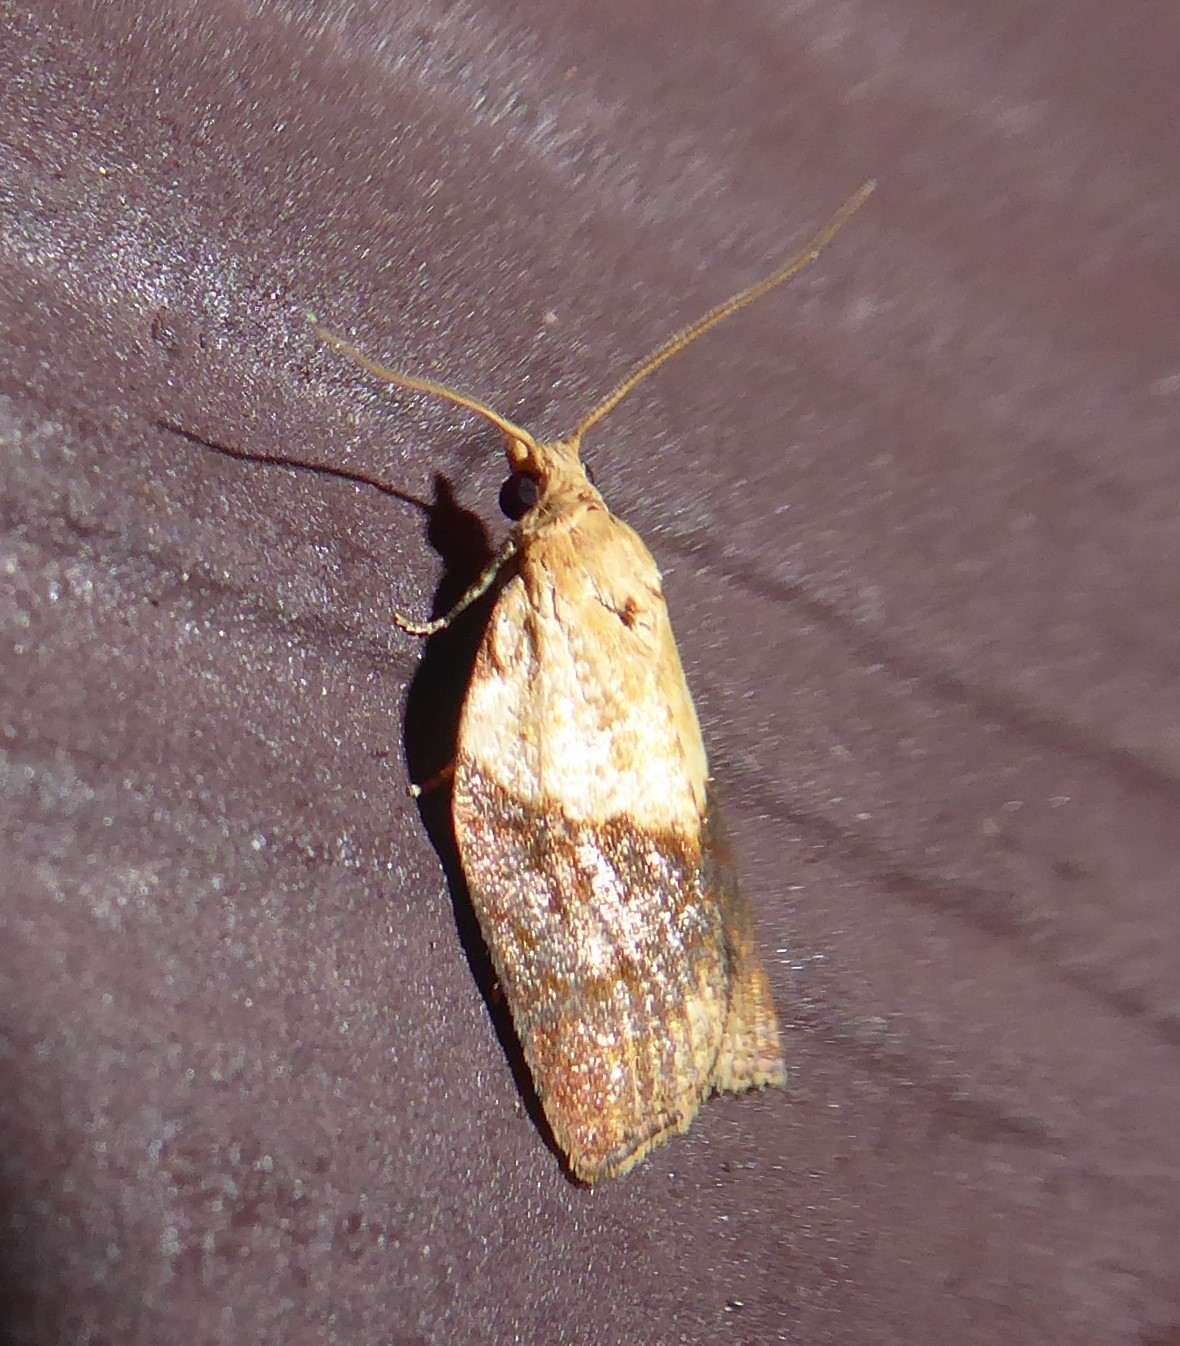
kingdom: Animalia
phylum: Arthropoda
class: Insecta
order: Lepidoptera
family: Tortricidae
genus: Epiphyas
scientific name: Epiphyas postvittana
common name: Light brown apple moth
